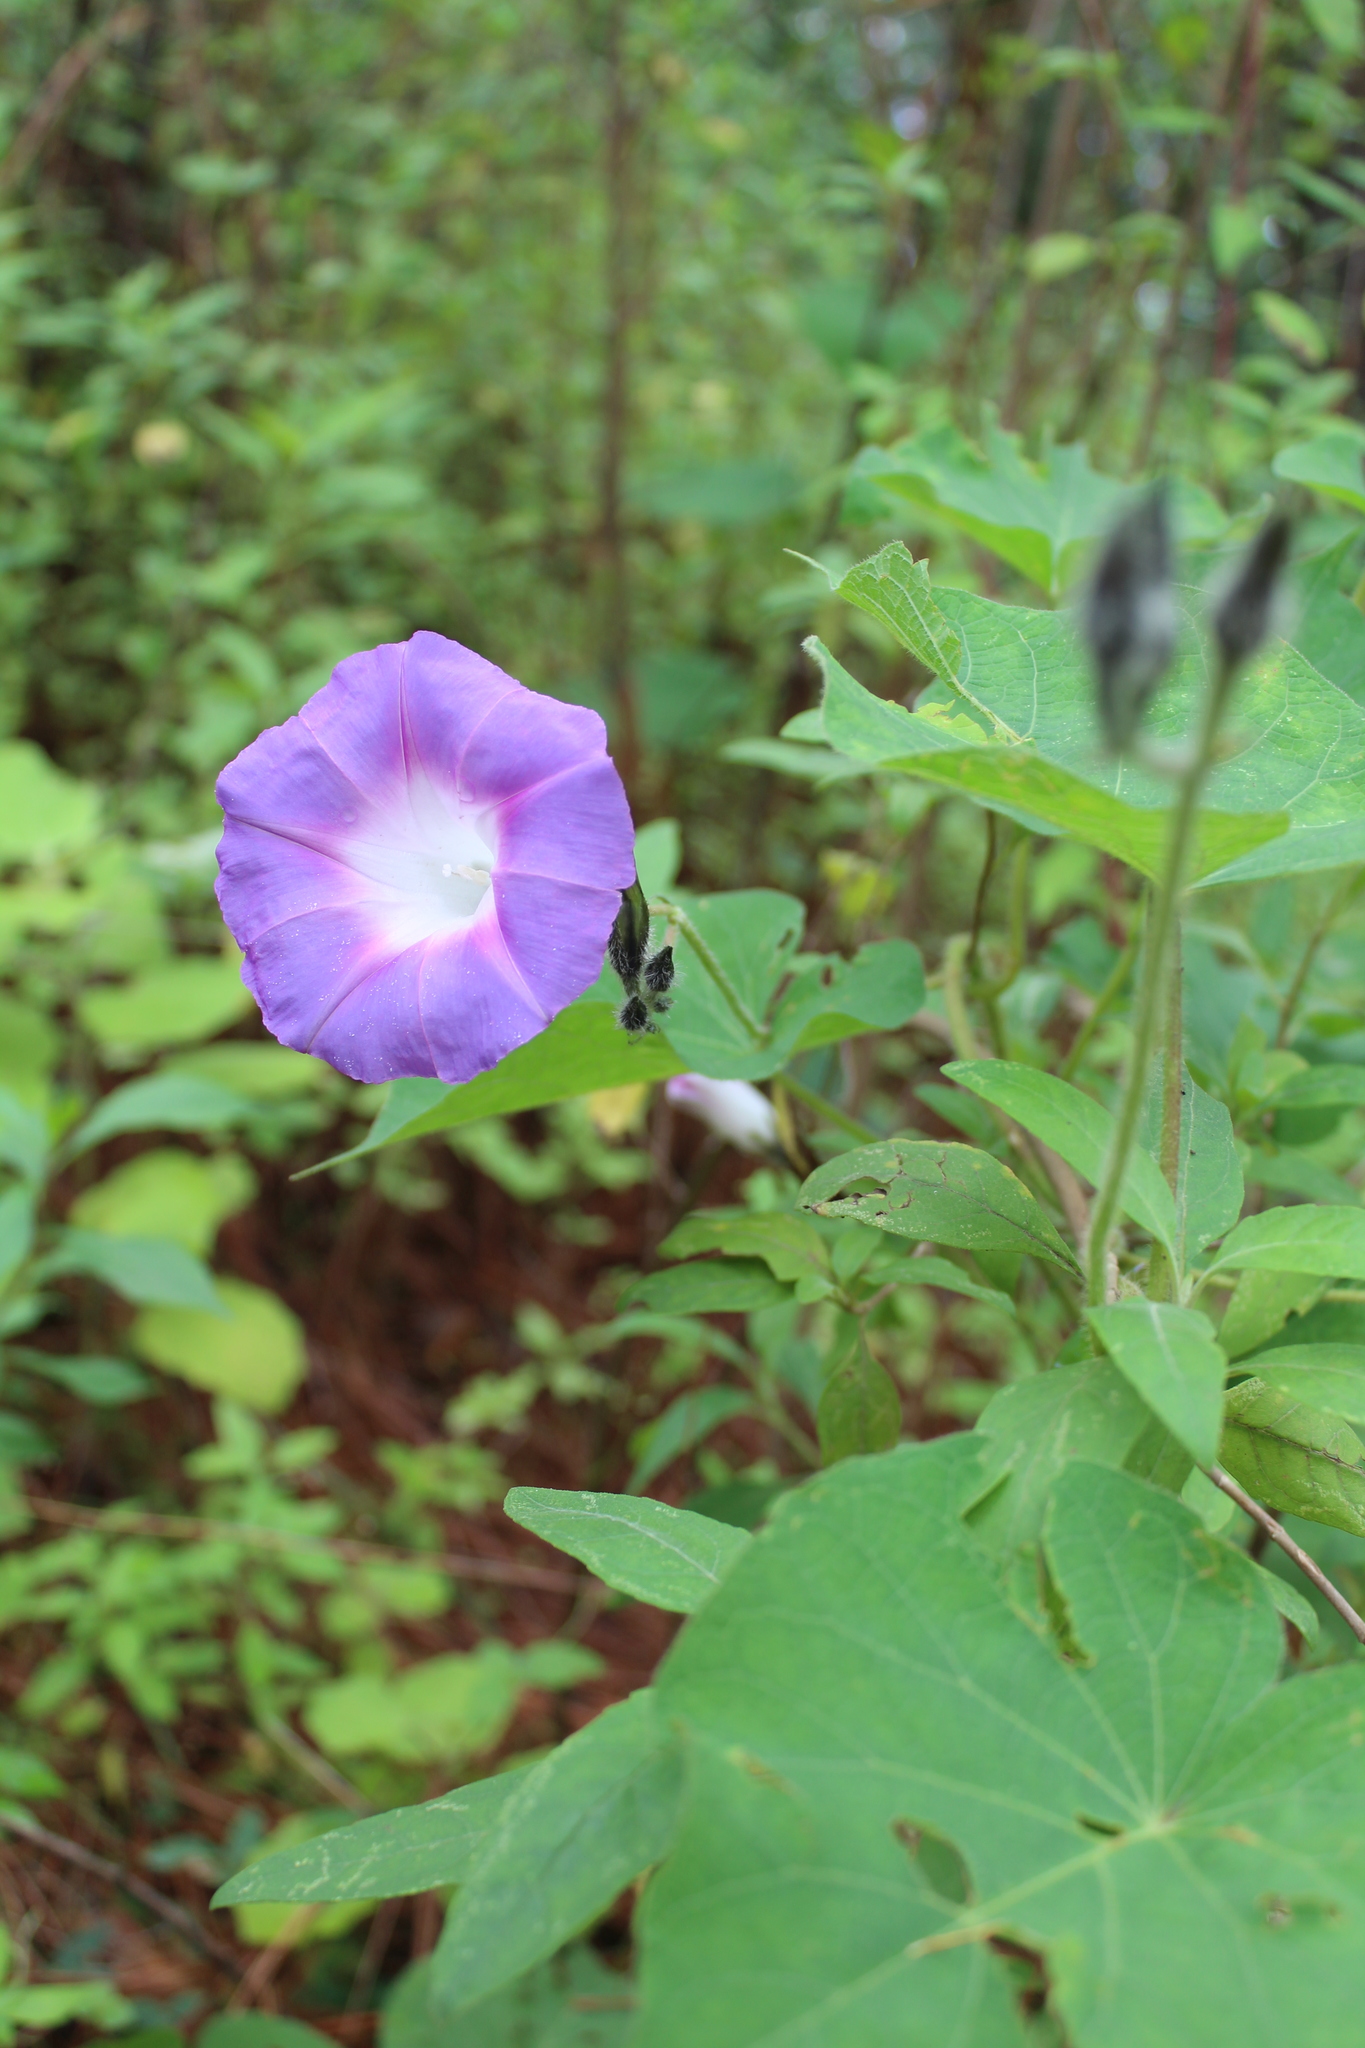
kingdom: Plantae
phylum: Tracheophyta
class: Magnoliopsida
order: Solanales
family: Convolvulaceae
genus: Ipomoea
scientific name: Ipomoea orizabensis
